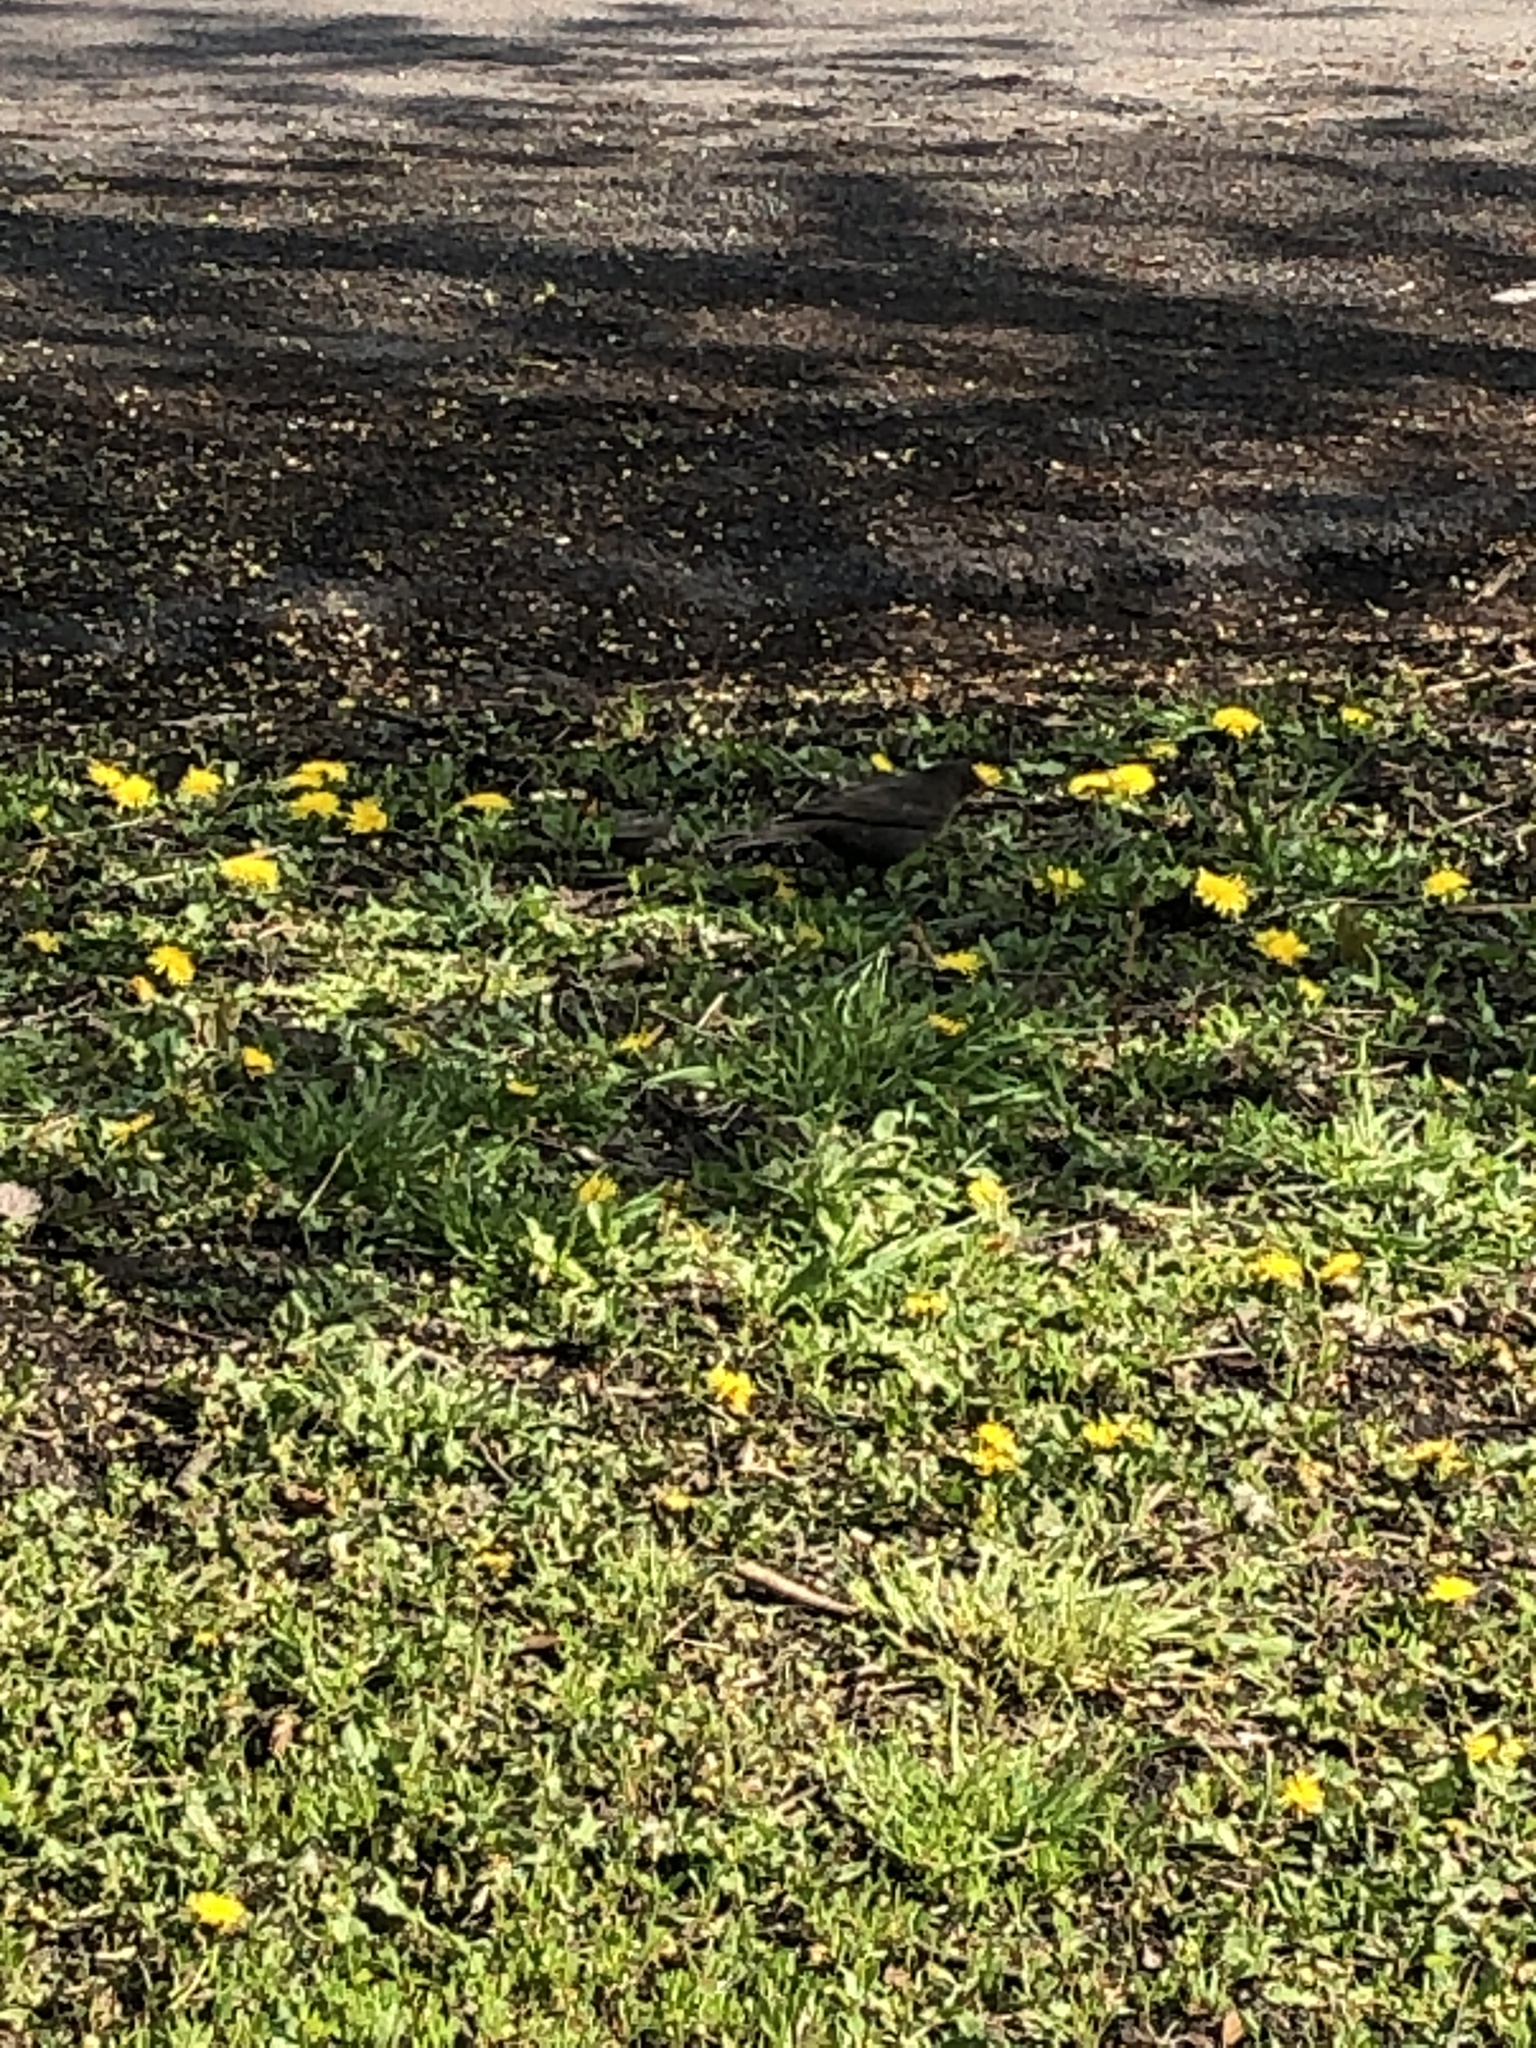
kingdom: Animalia
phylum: Chordata
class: Aves
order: Passeriformes
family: Turdidae
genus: Turdus
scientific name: Turdus merula
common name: Common blackbird
